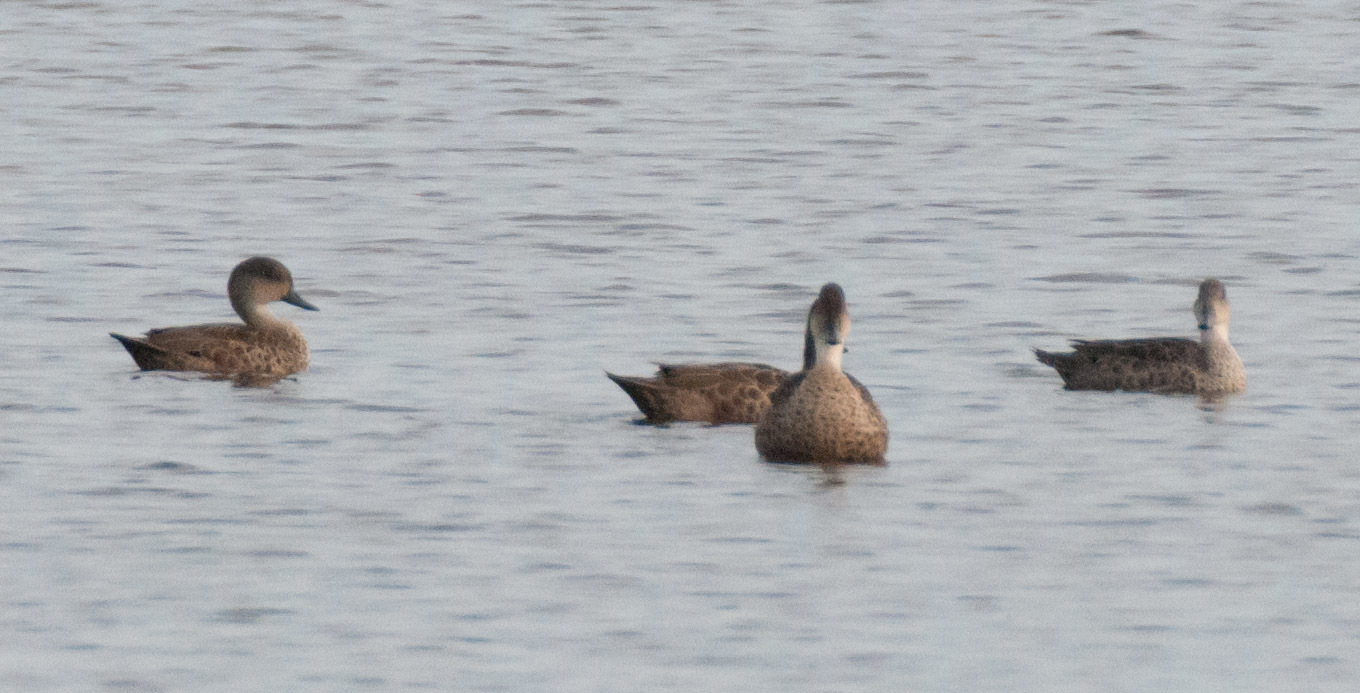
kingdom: Animalia
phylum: Chordata
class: Aves
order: Anseriformes
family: Anatidae
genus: Anas
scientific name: Anas gracilis
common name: Grey teal
